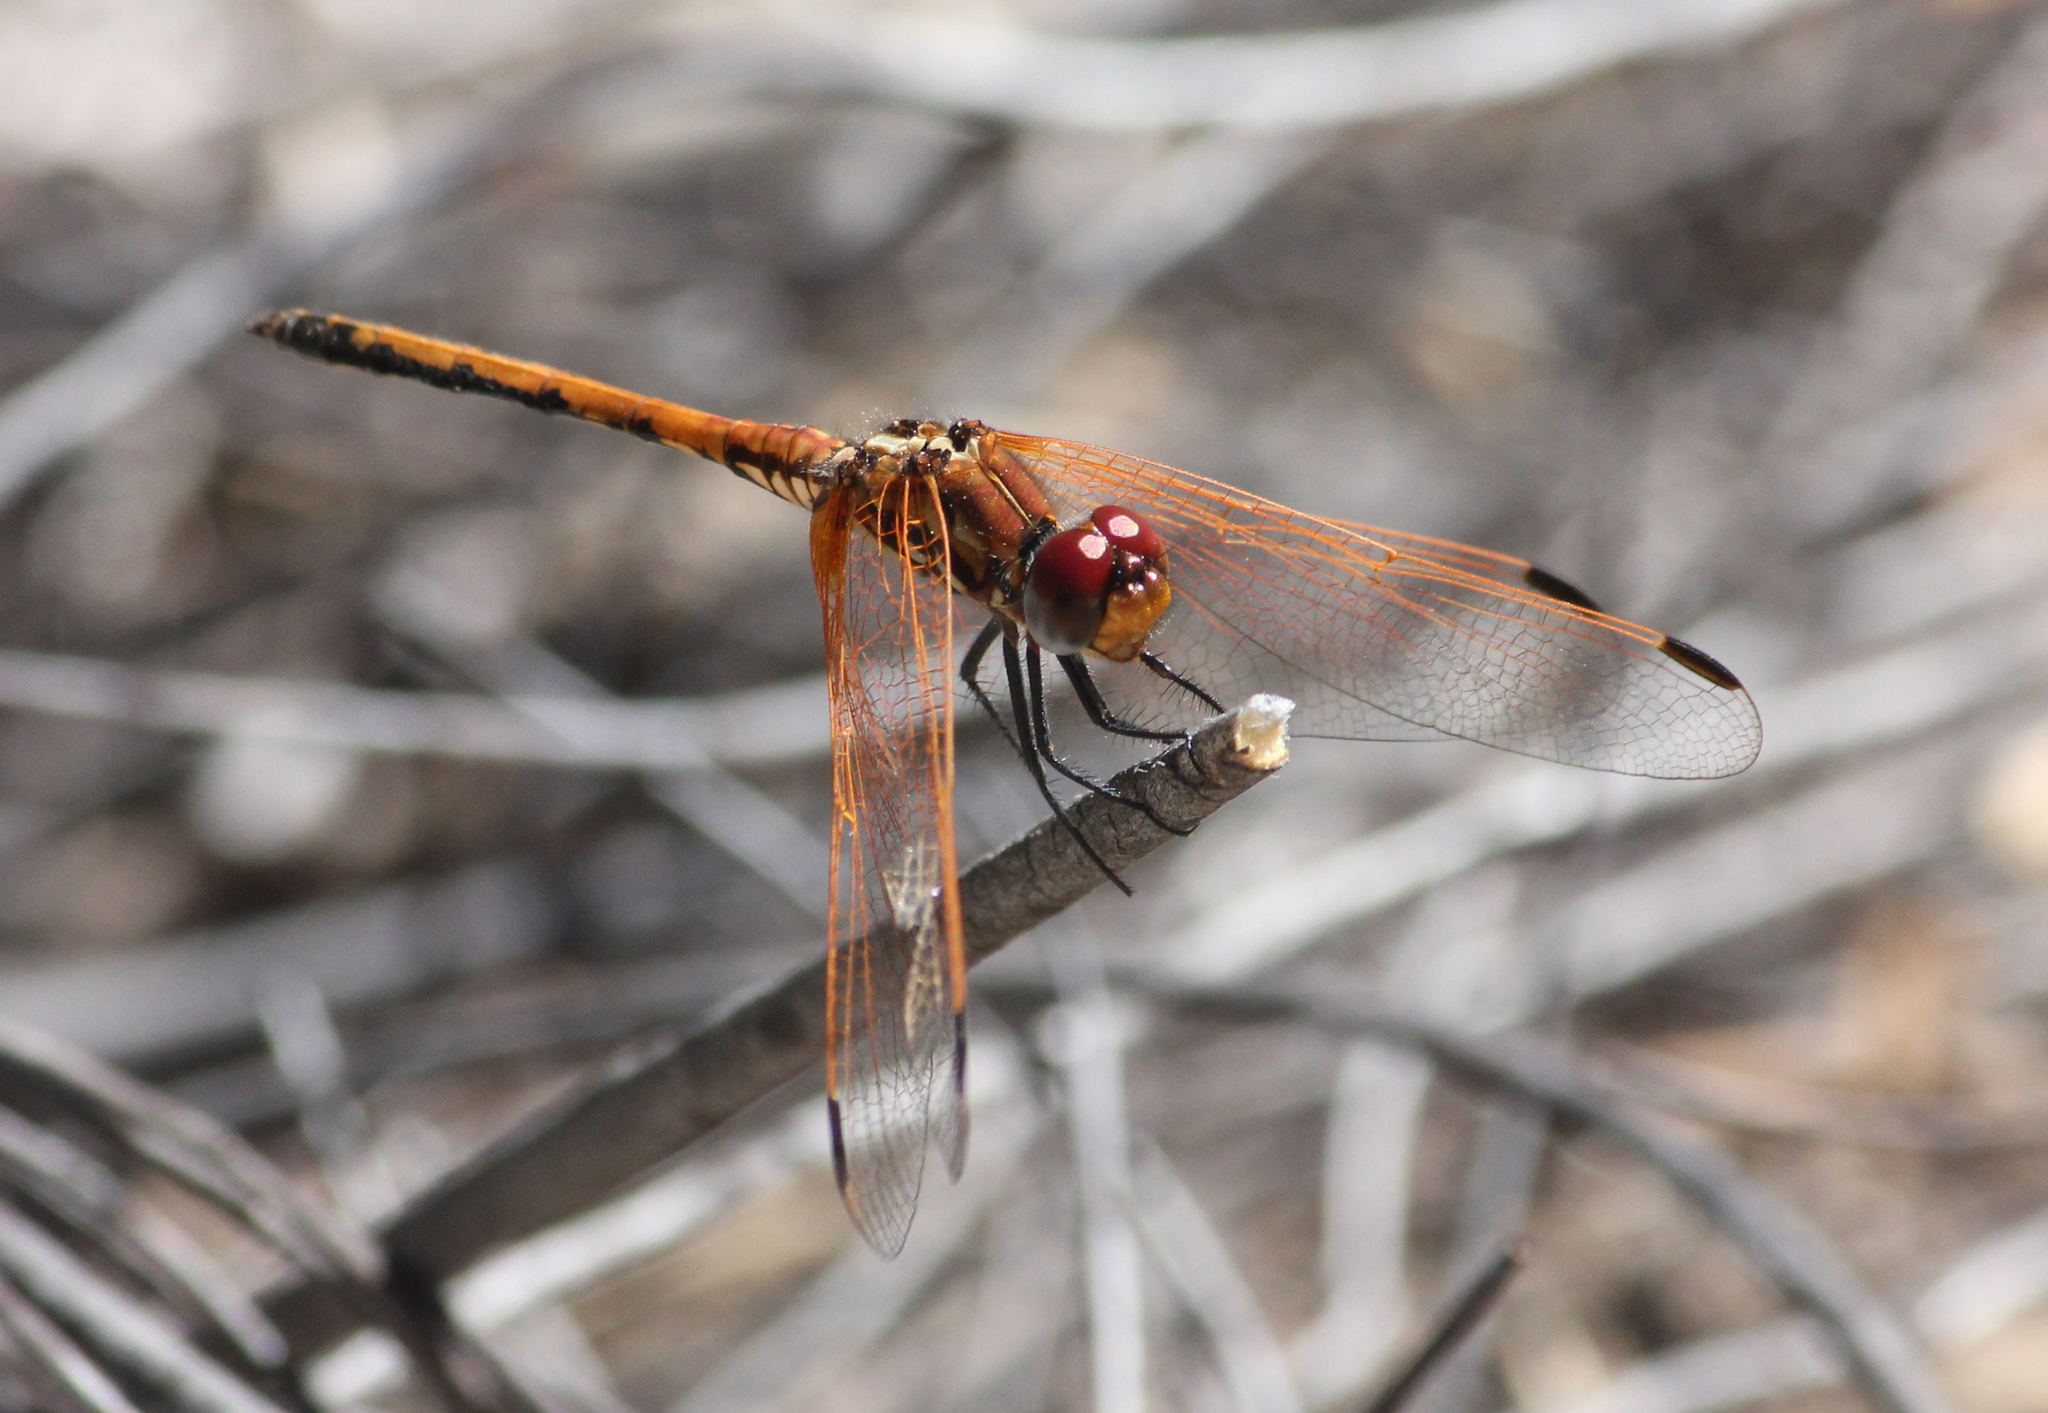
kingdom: Animalia
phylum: Arthropoda
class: Insecta
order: Odonata
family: Libellulidae
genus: Trithemis
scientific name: Trithemis arteriosa
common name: Red-veined dropwing
